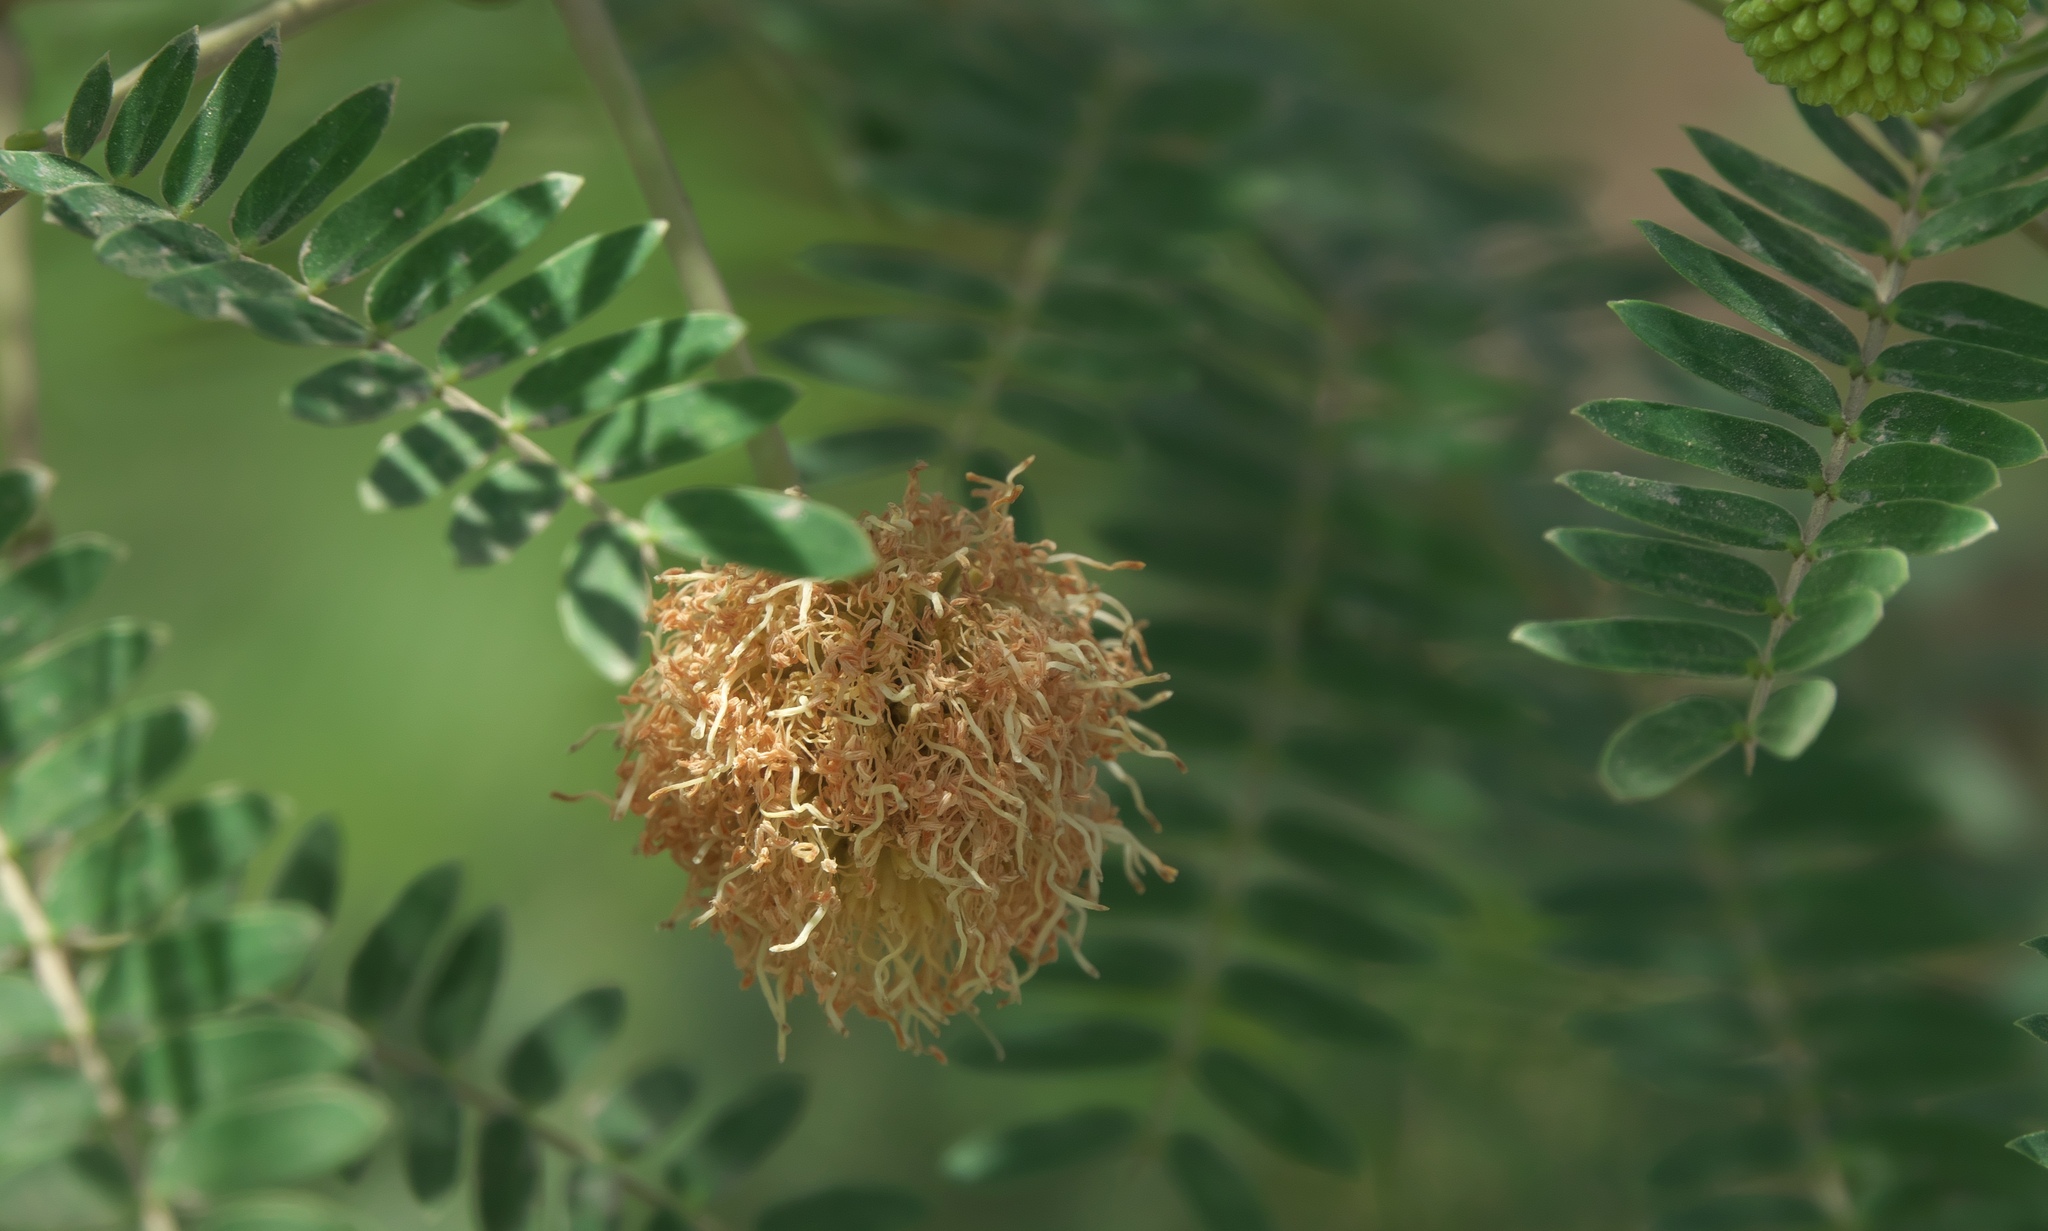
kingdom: Plantae
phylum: Tracheophyta
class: Magnoliopsida
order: Fabales
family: Fabaceae
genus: Leucaena
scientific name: Leucaena leucocephala
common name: White leadtree
